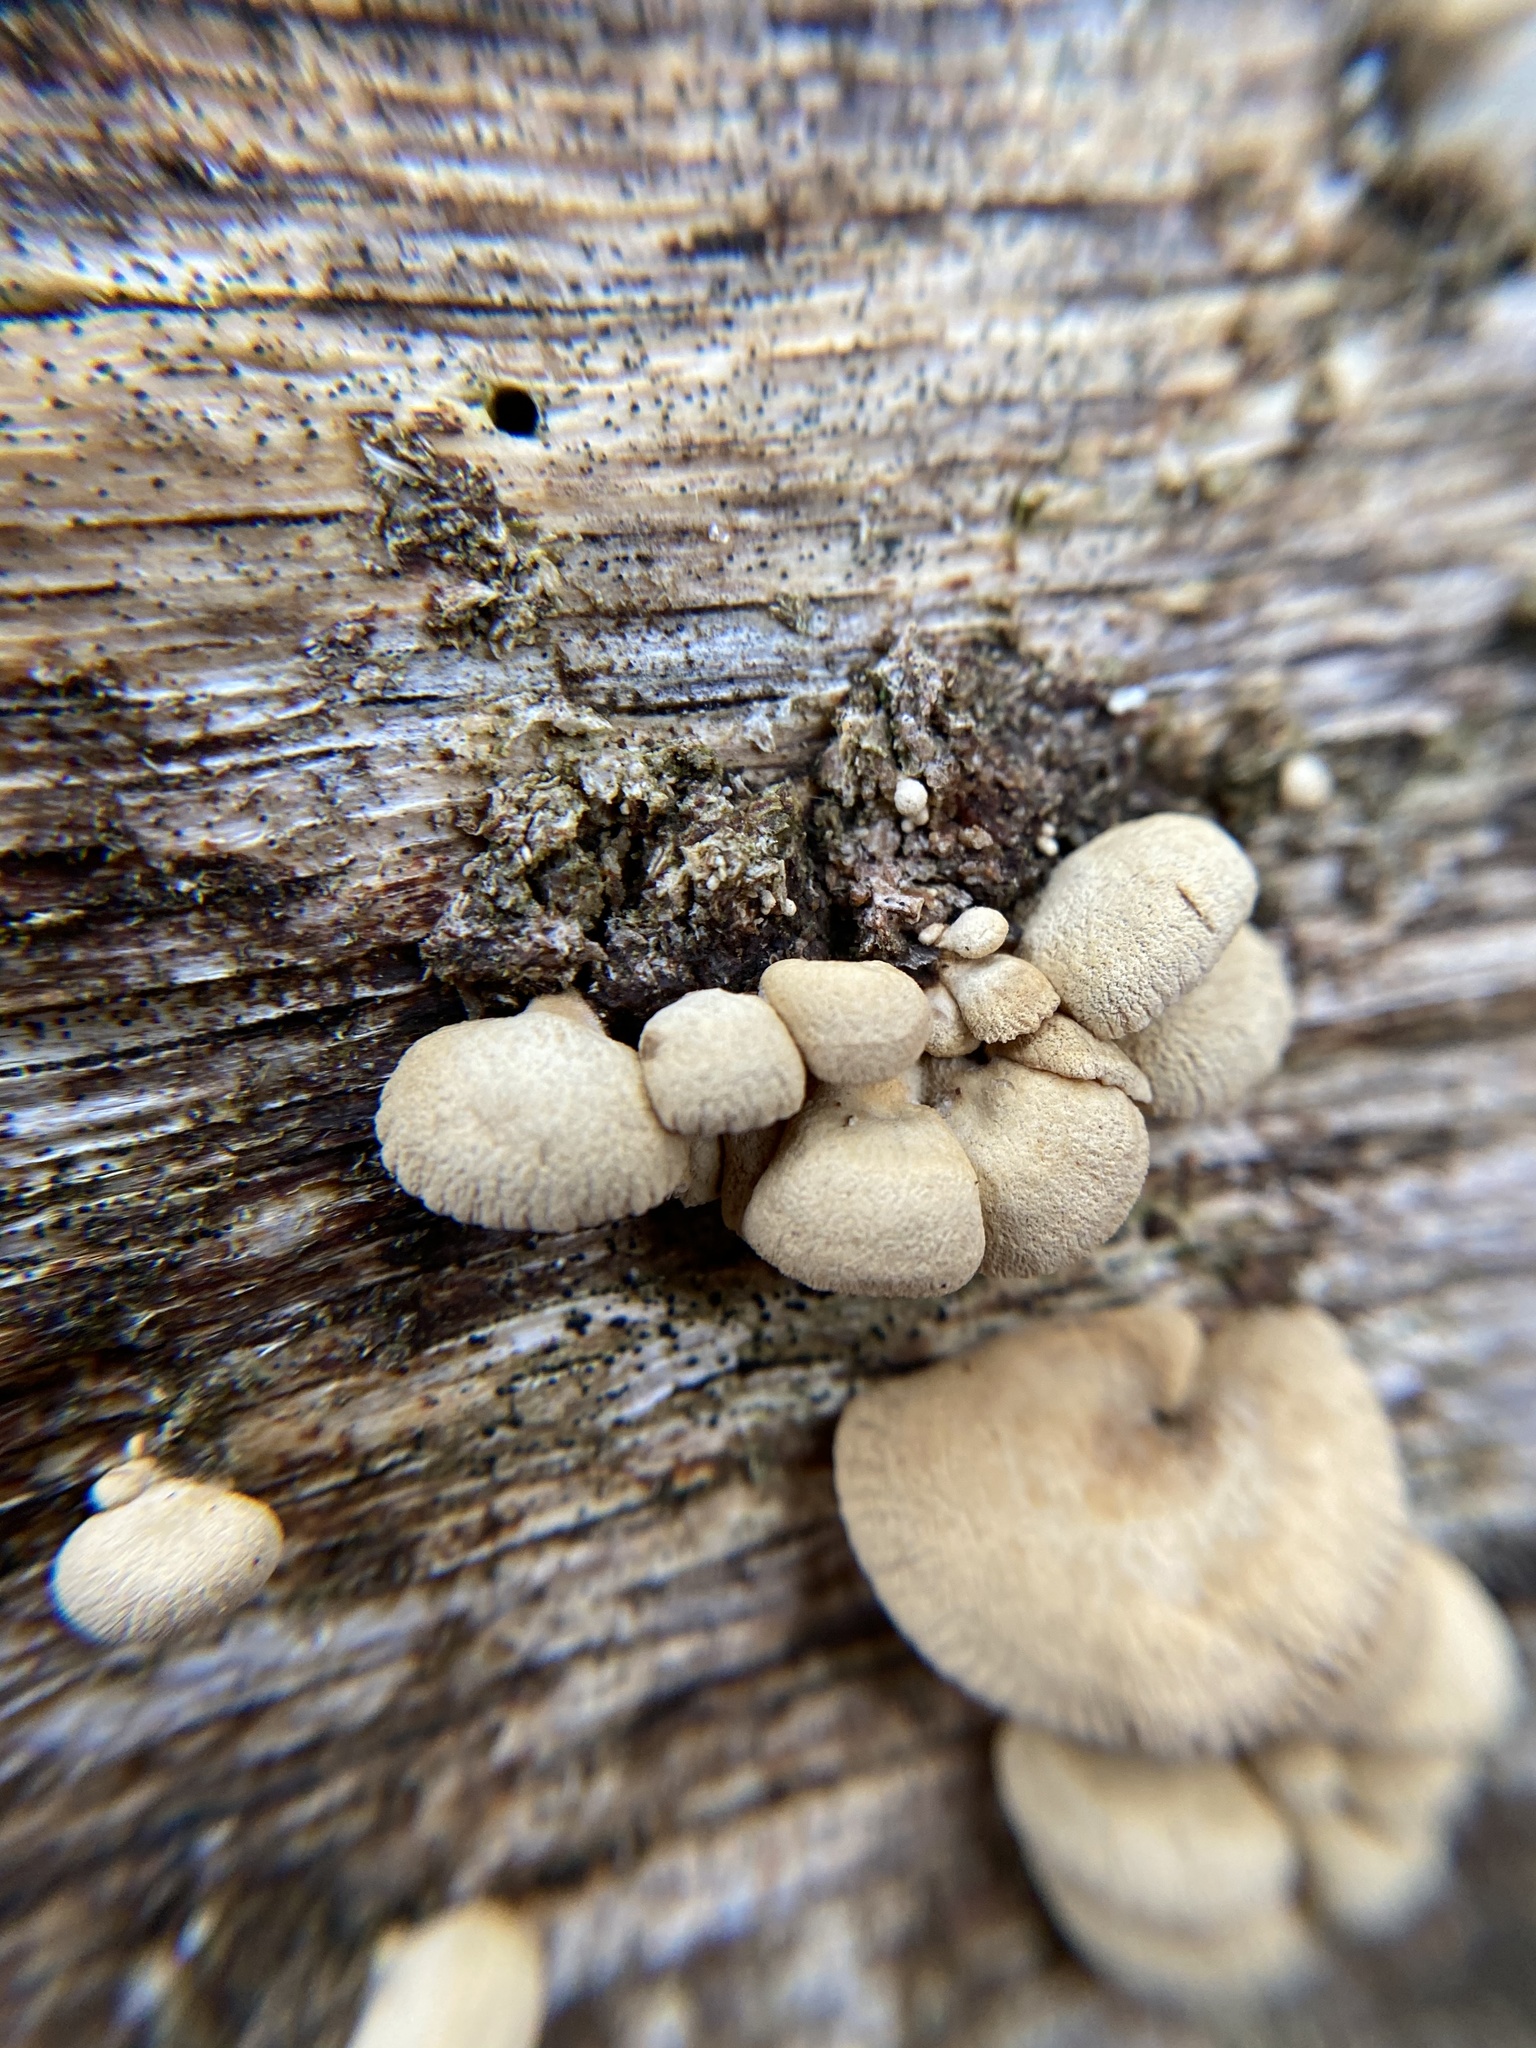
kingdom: Fungi
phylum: Basidiomycota
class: Agaricomycetes
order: Agaricales
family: Mycenaceae
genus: Panellus
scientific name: Panellus stipticus
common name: Bitter oysterling
